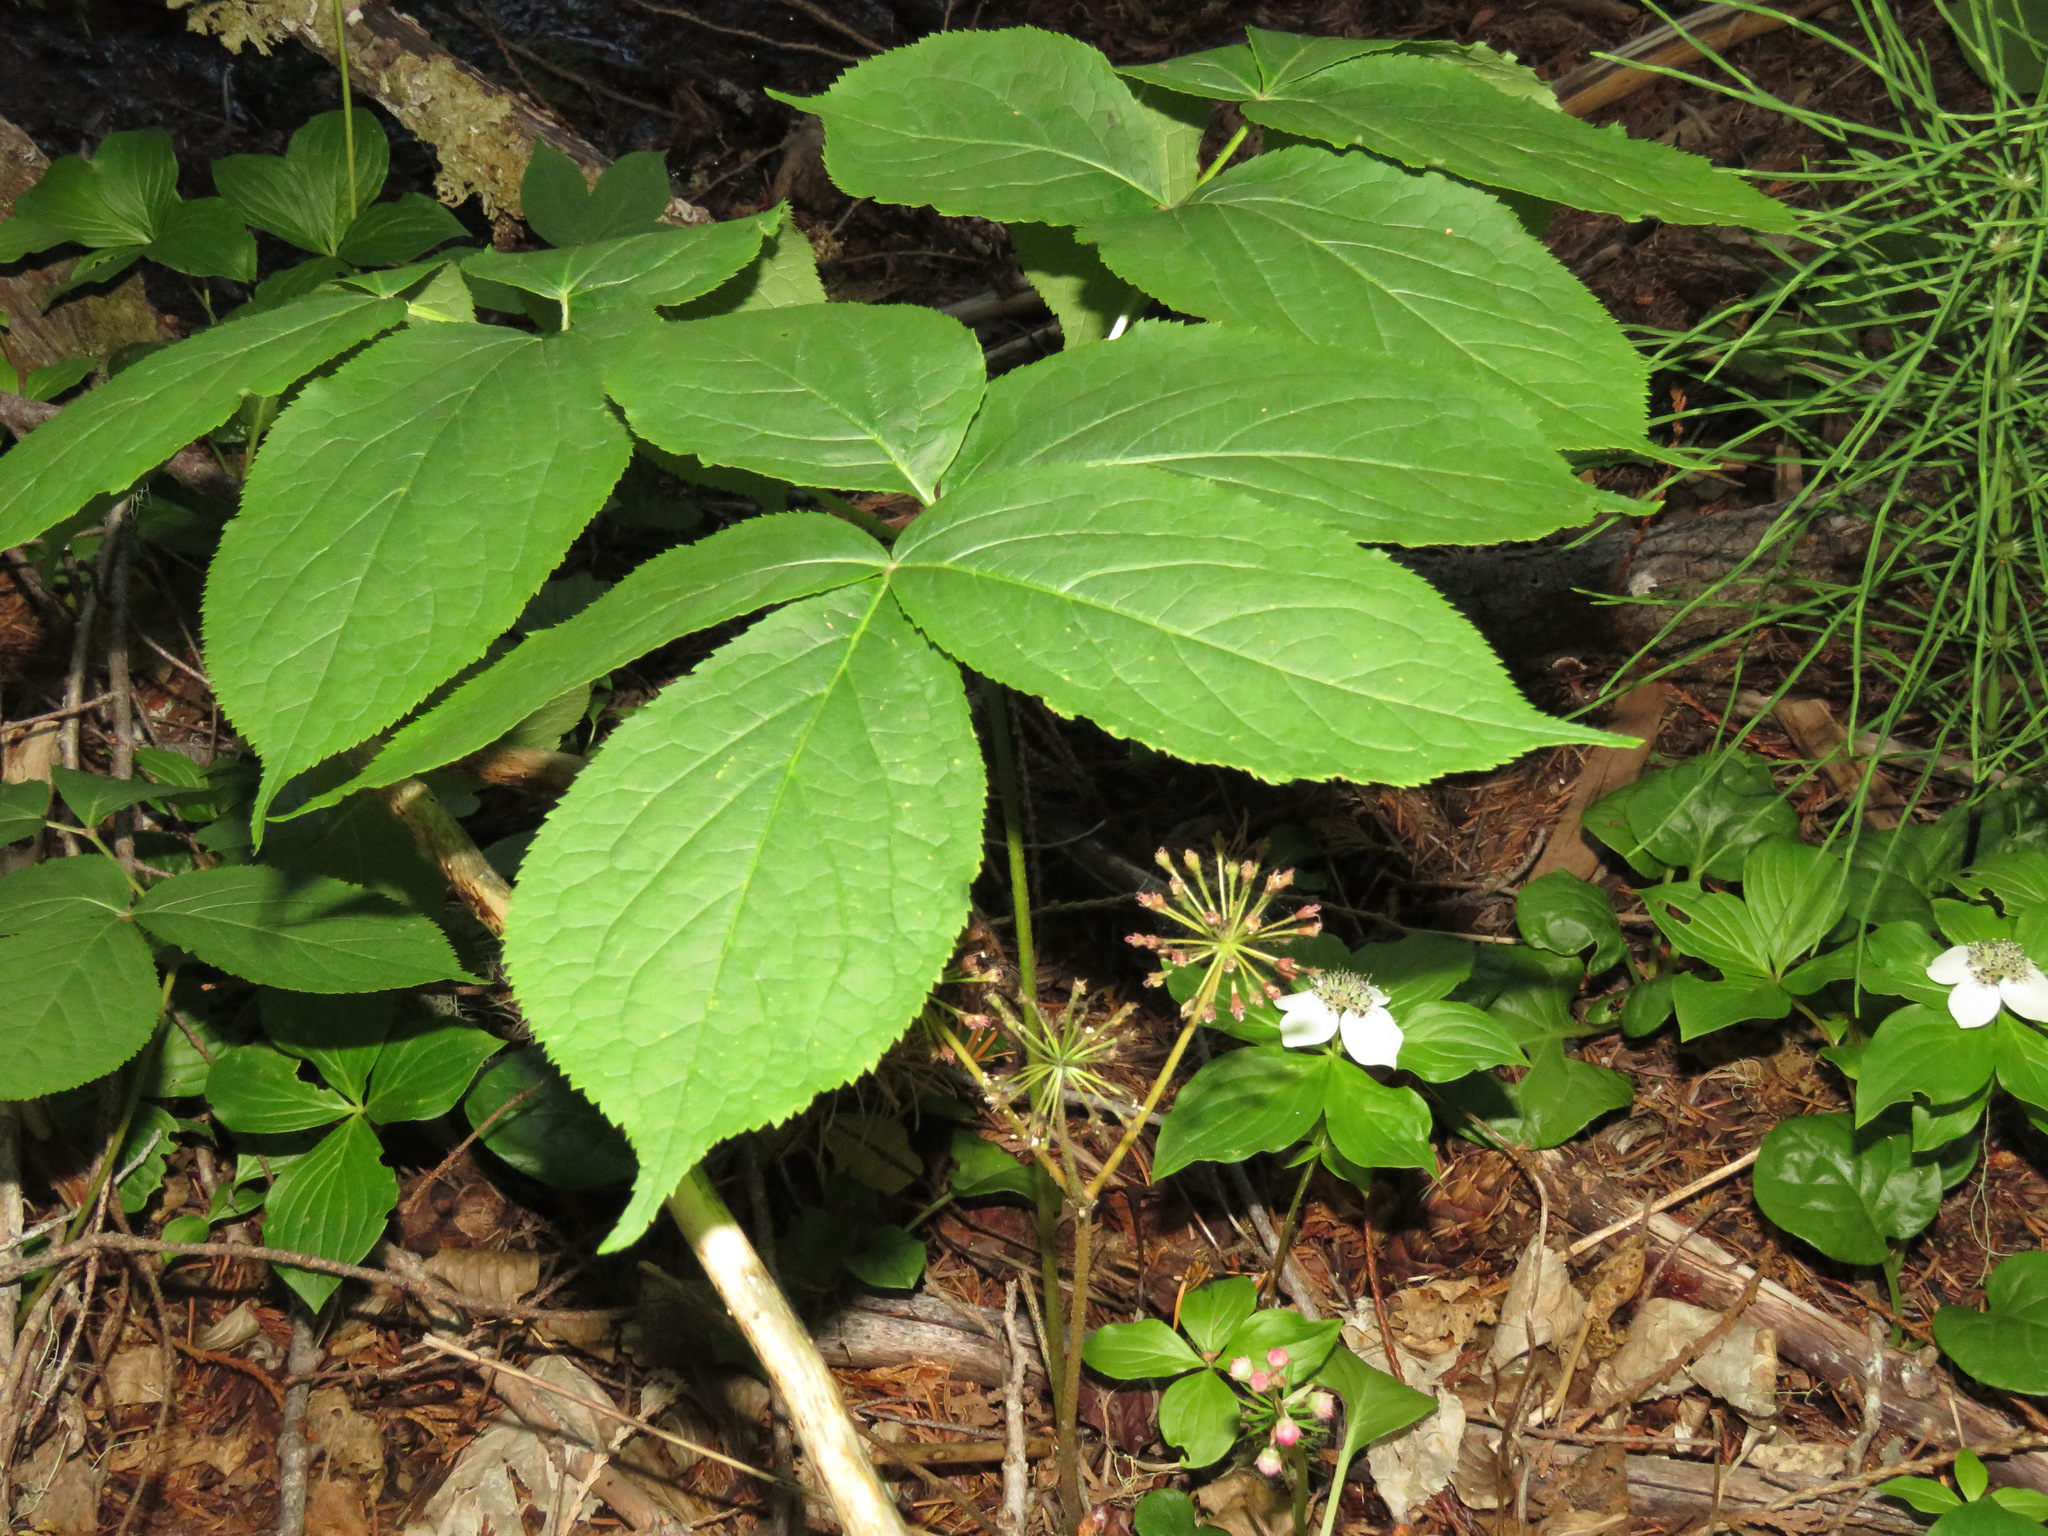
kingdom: Plantae
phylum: Tracheophyta
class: Magnoliopsida
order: Apiales
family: Araliaceae
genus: Aralia
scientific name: Aralia nudicaulis
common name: Wild sarsaparilla
